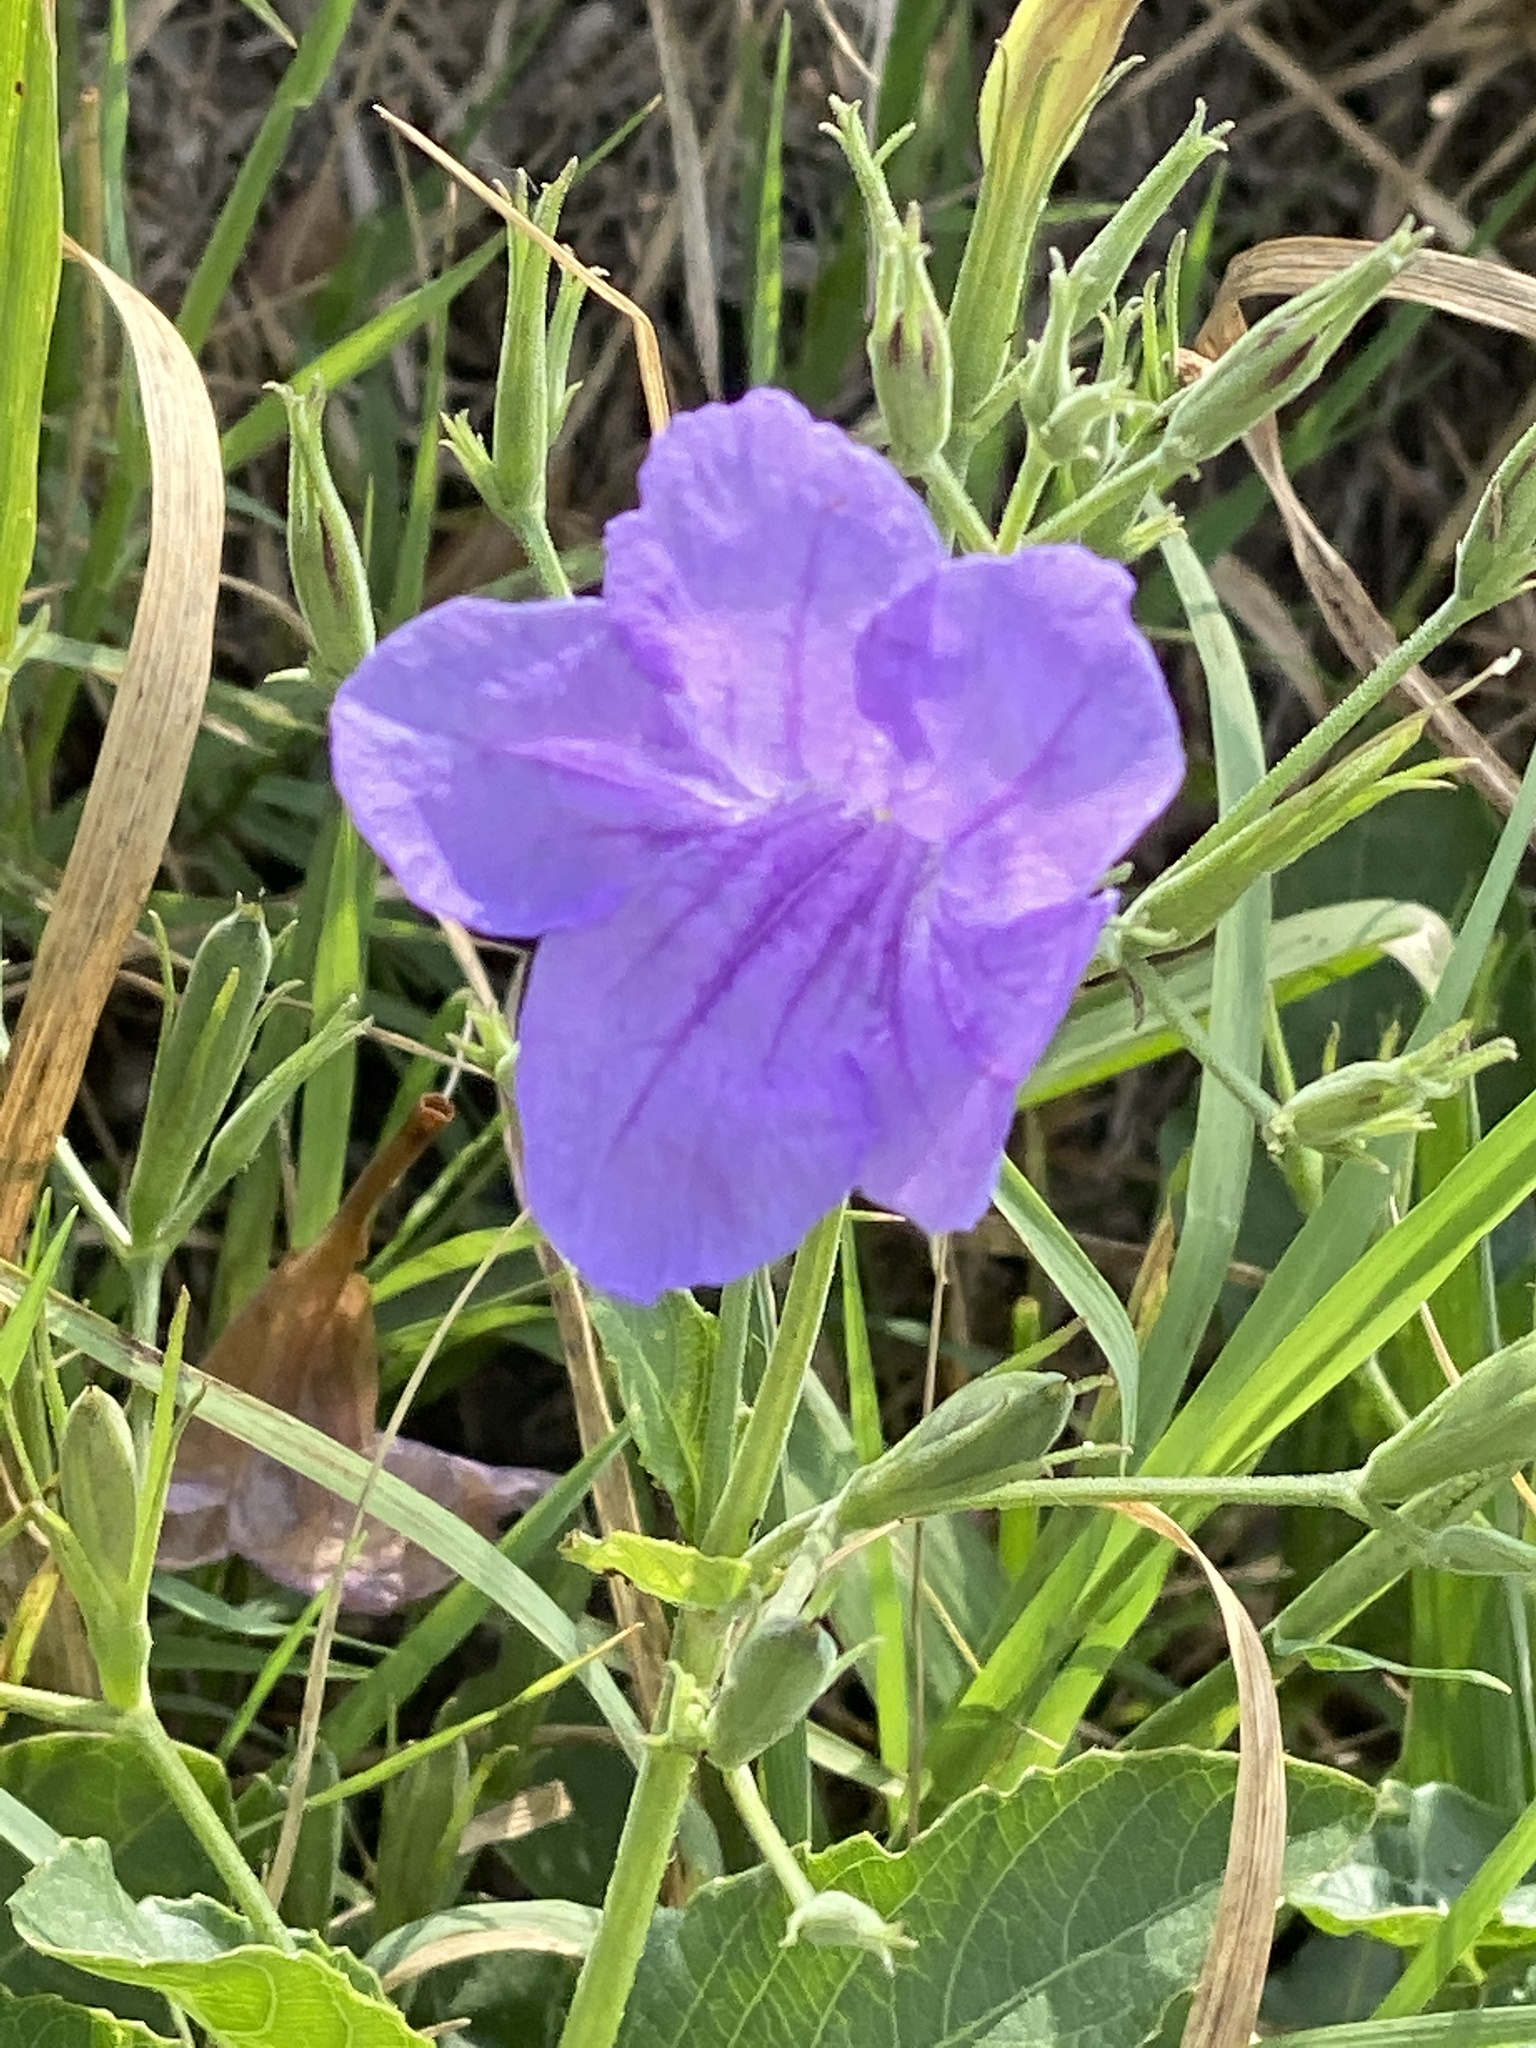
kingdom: Plantae
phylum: Tracheophyta
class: Magnoliopsida
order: Lamiales
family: Acanthaceae
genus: Ruellia
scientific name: Ruellia ciliatiflora
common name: Hairyflower wild petunia
